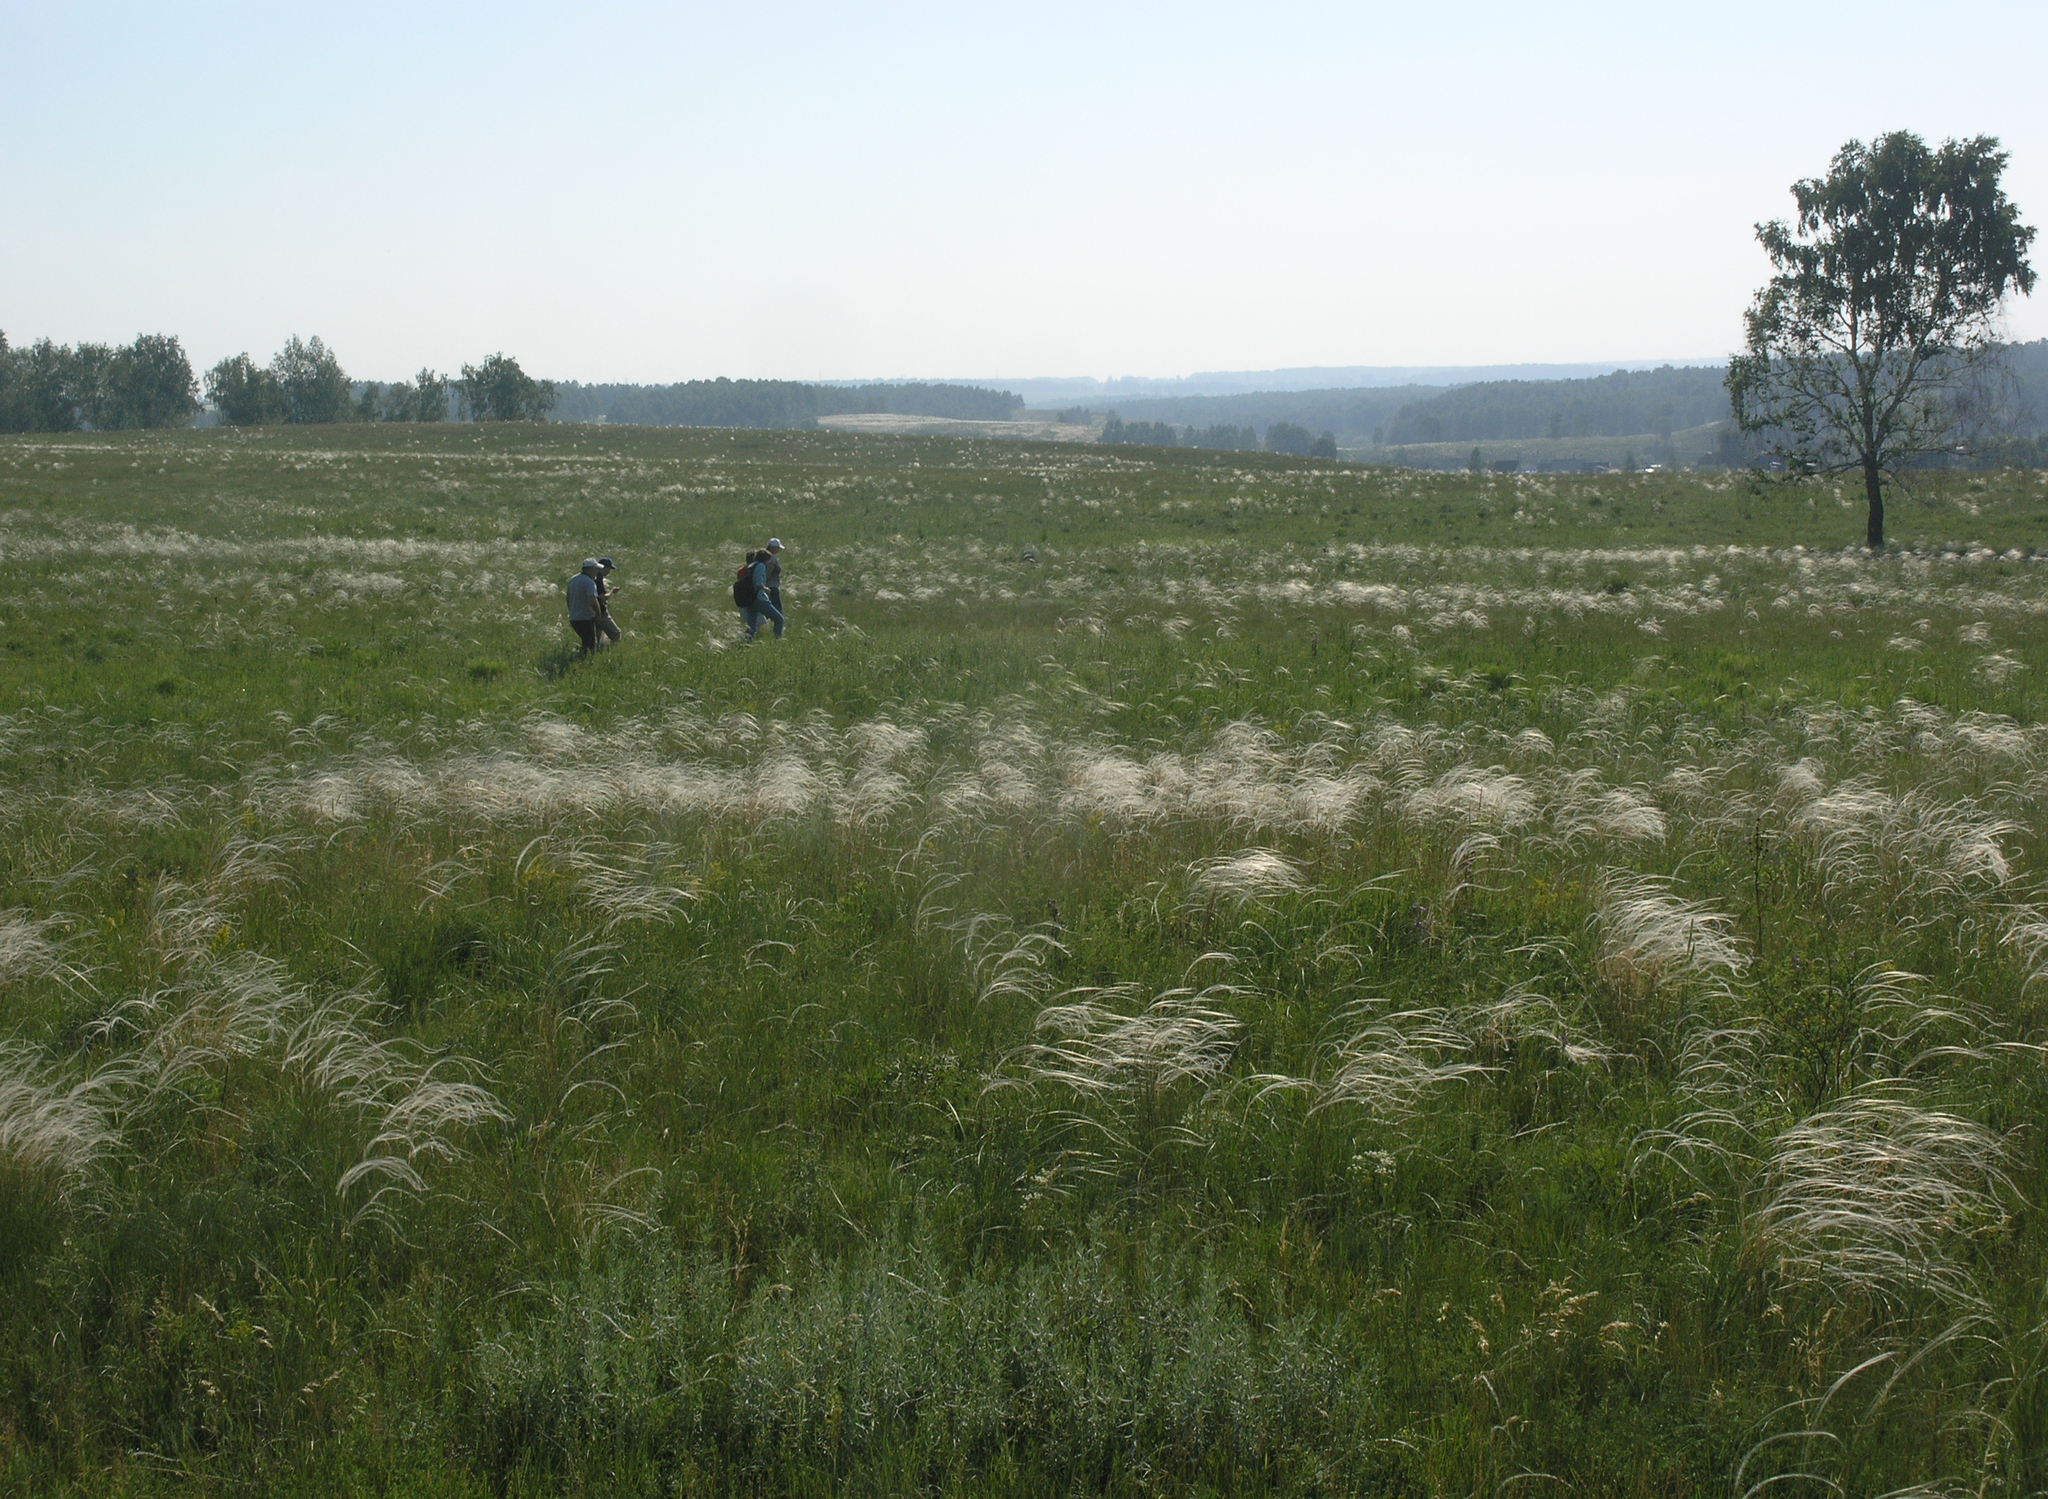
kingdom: Plantae
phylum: Tracheophyta
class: Liliopsida
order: Poales
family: Poaceae
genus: Stipa
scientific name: Stipa pennata
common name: European feather grass
